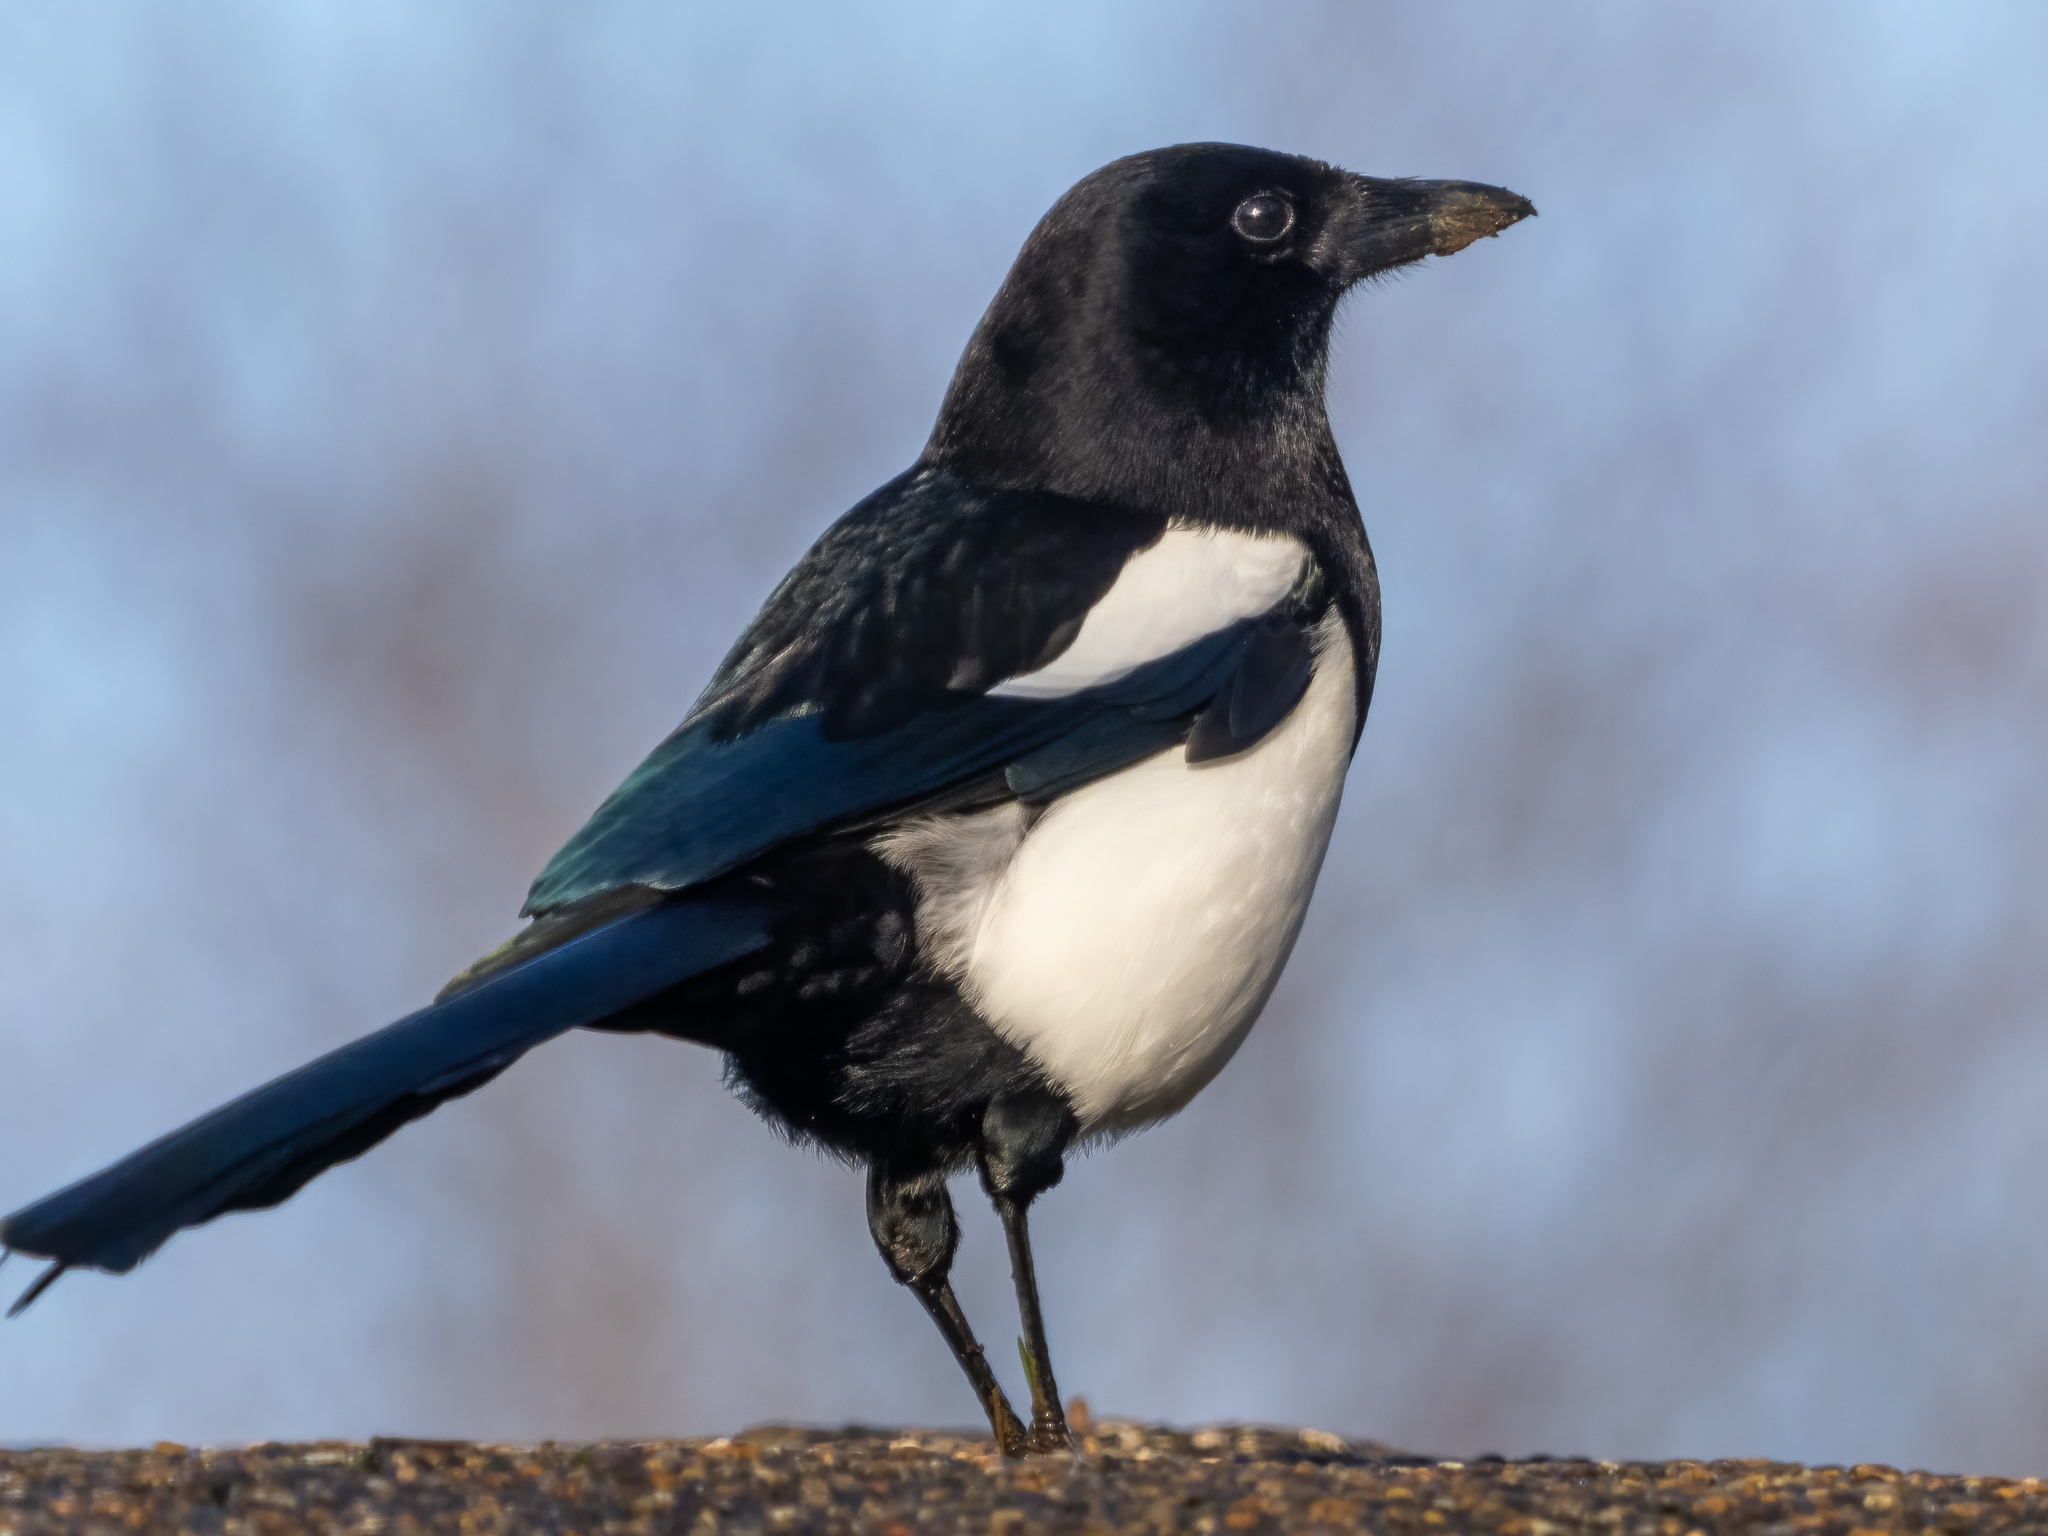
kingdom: Animalia
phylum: Chordata
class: Aves
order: Passeriformes
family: Corvidae
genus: Pica
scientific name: Pica pica
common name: Eurasian magpie
